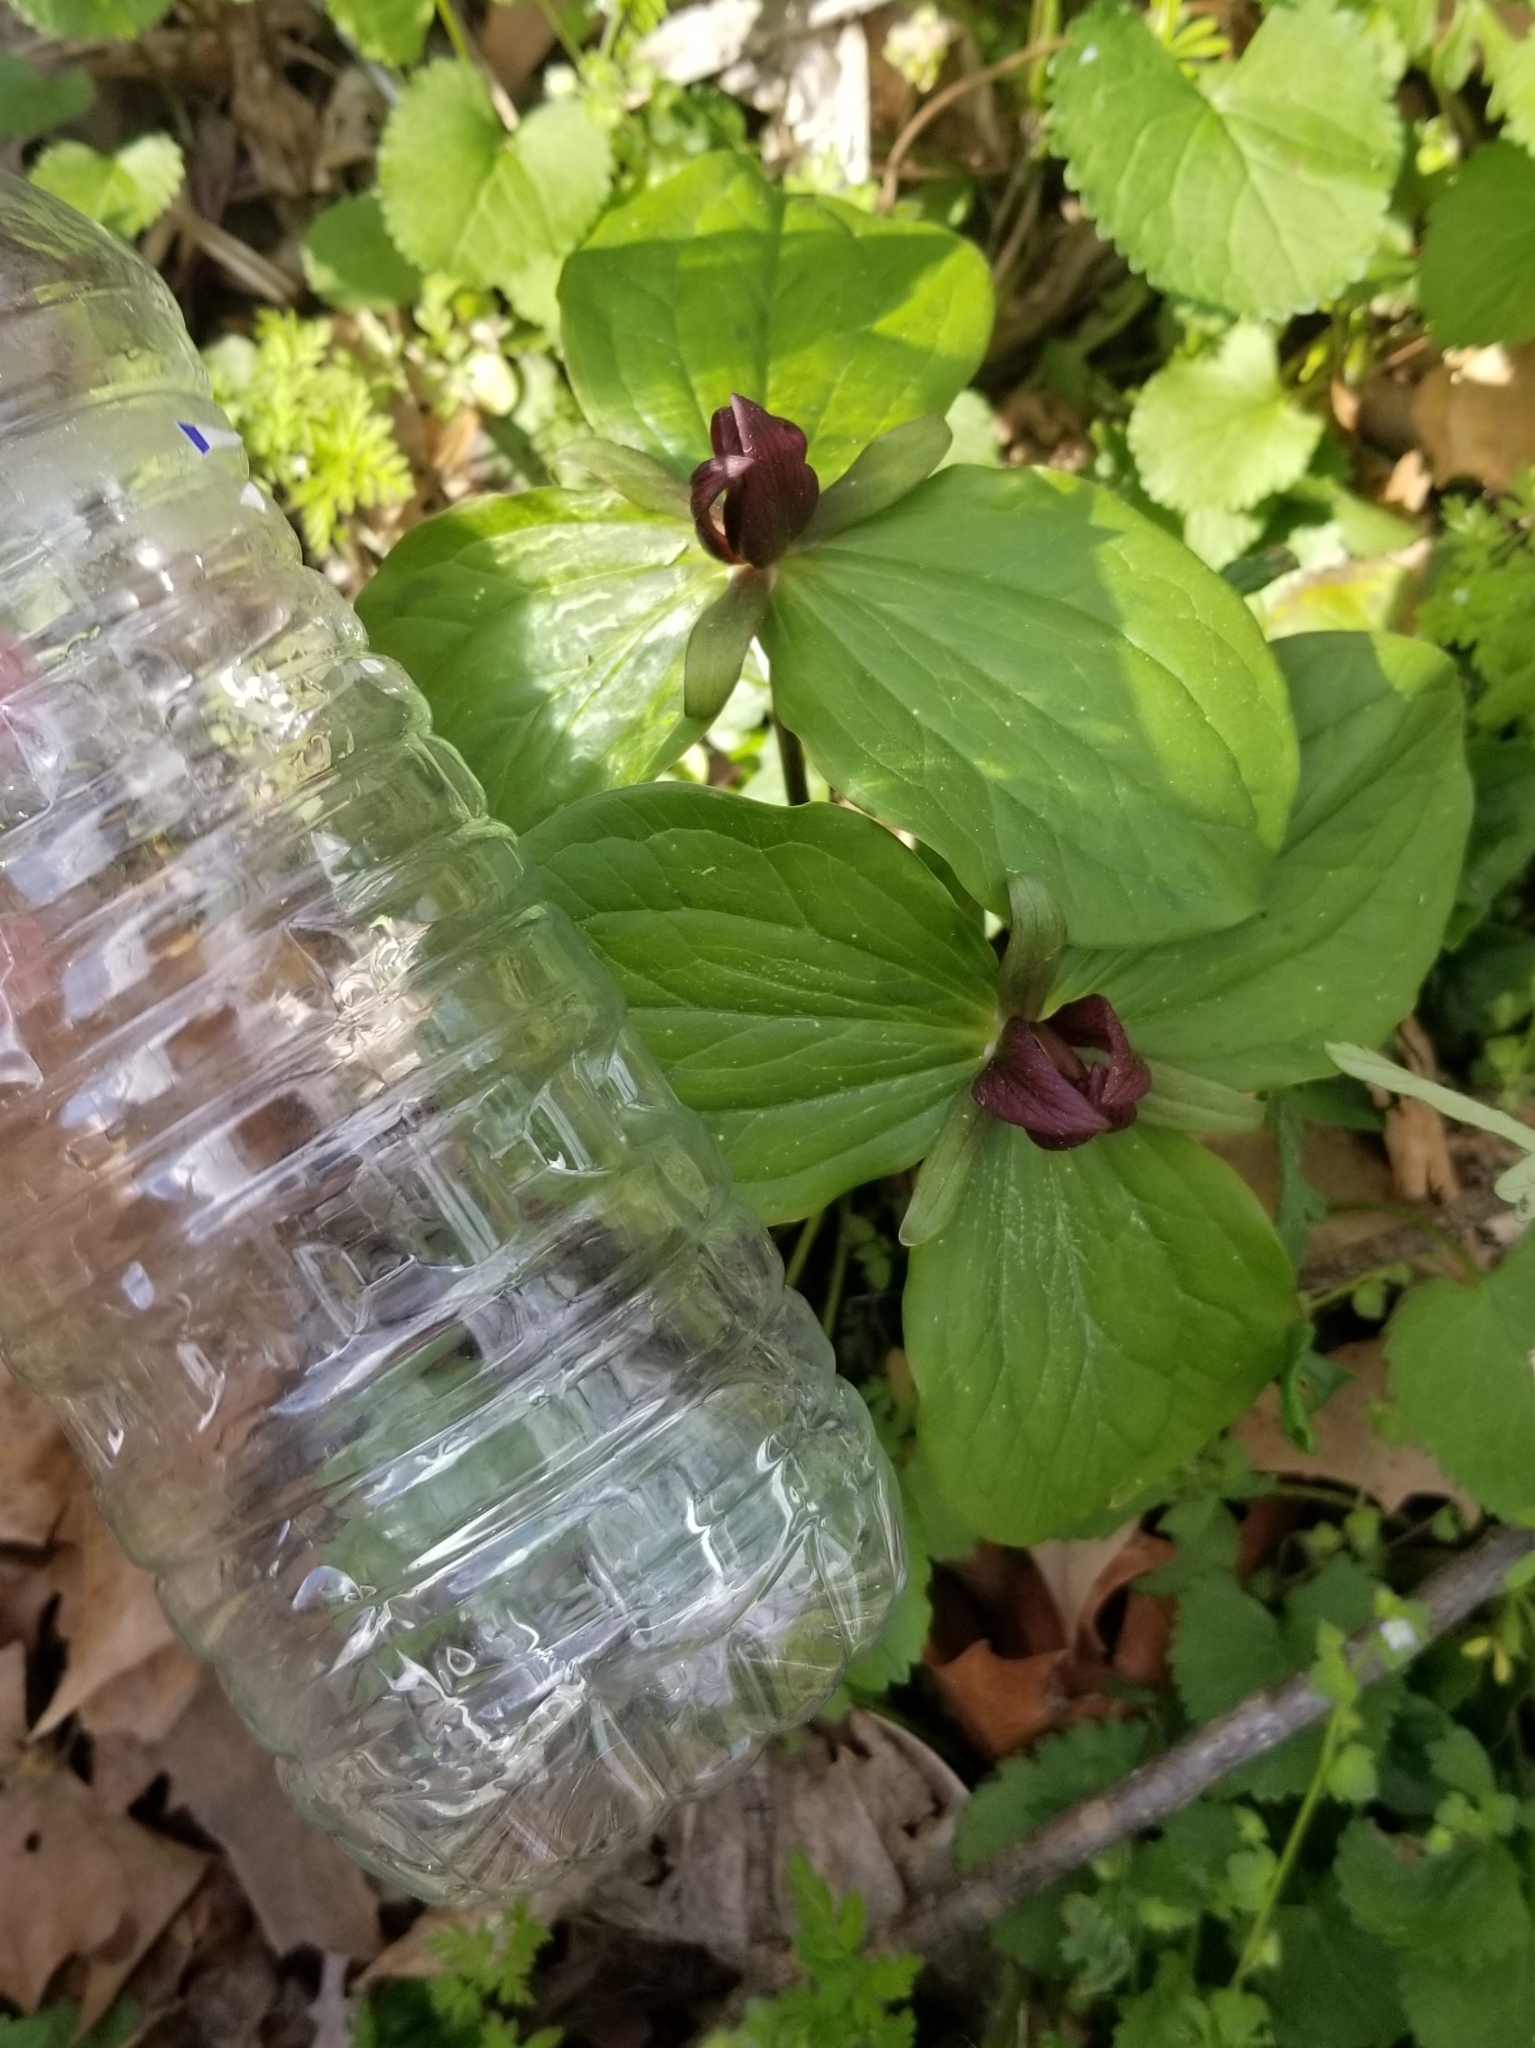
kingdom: Plantae
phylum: Tracheophyta
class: Liliopsida
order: Liliales
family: Melanthiaceae
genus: Trillium
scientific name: Trillium sessile
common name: Sessile trillium
